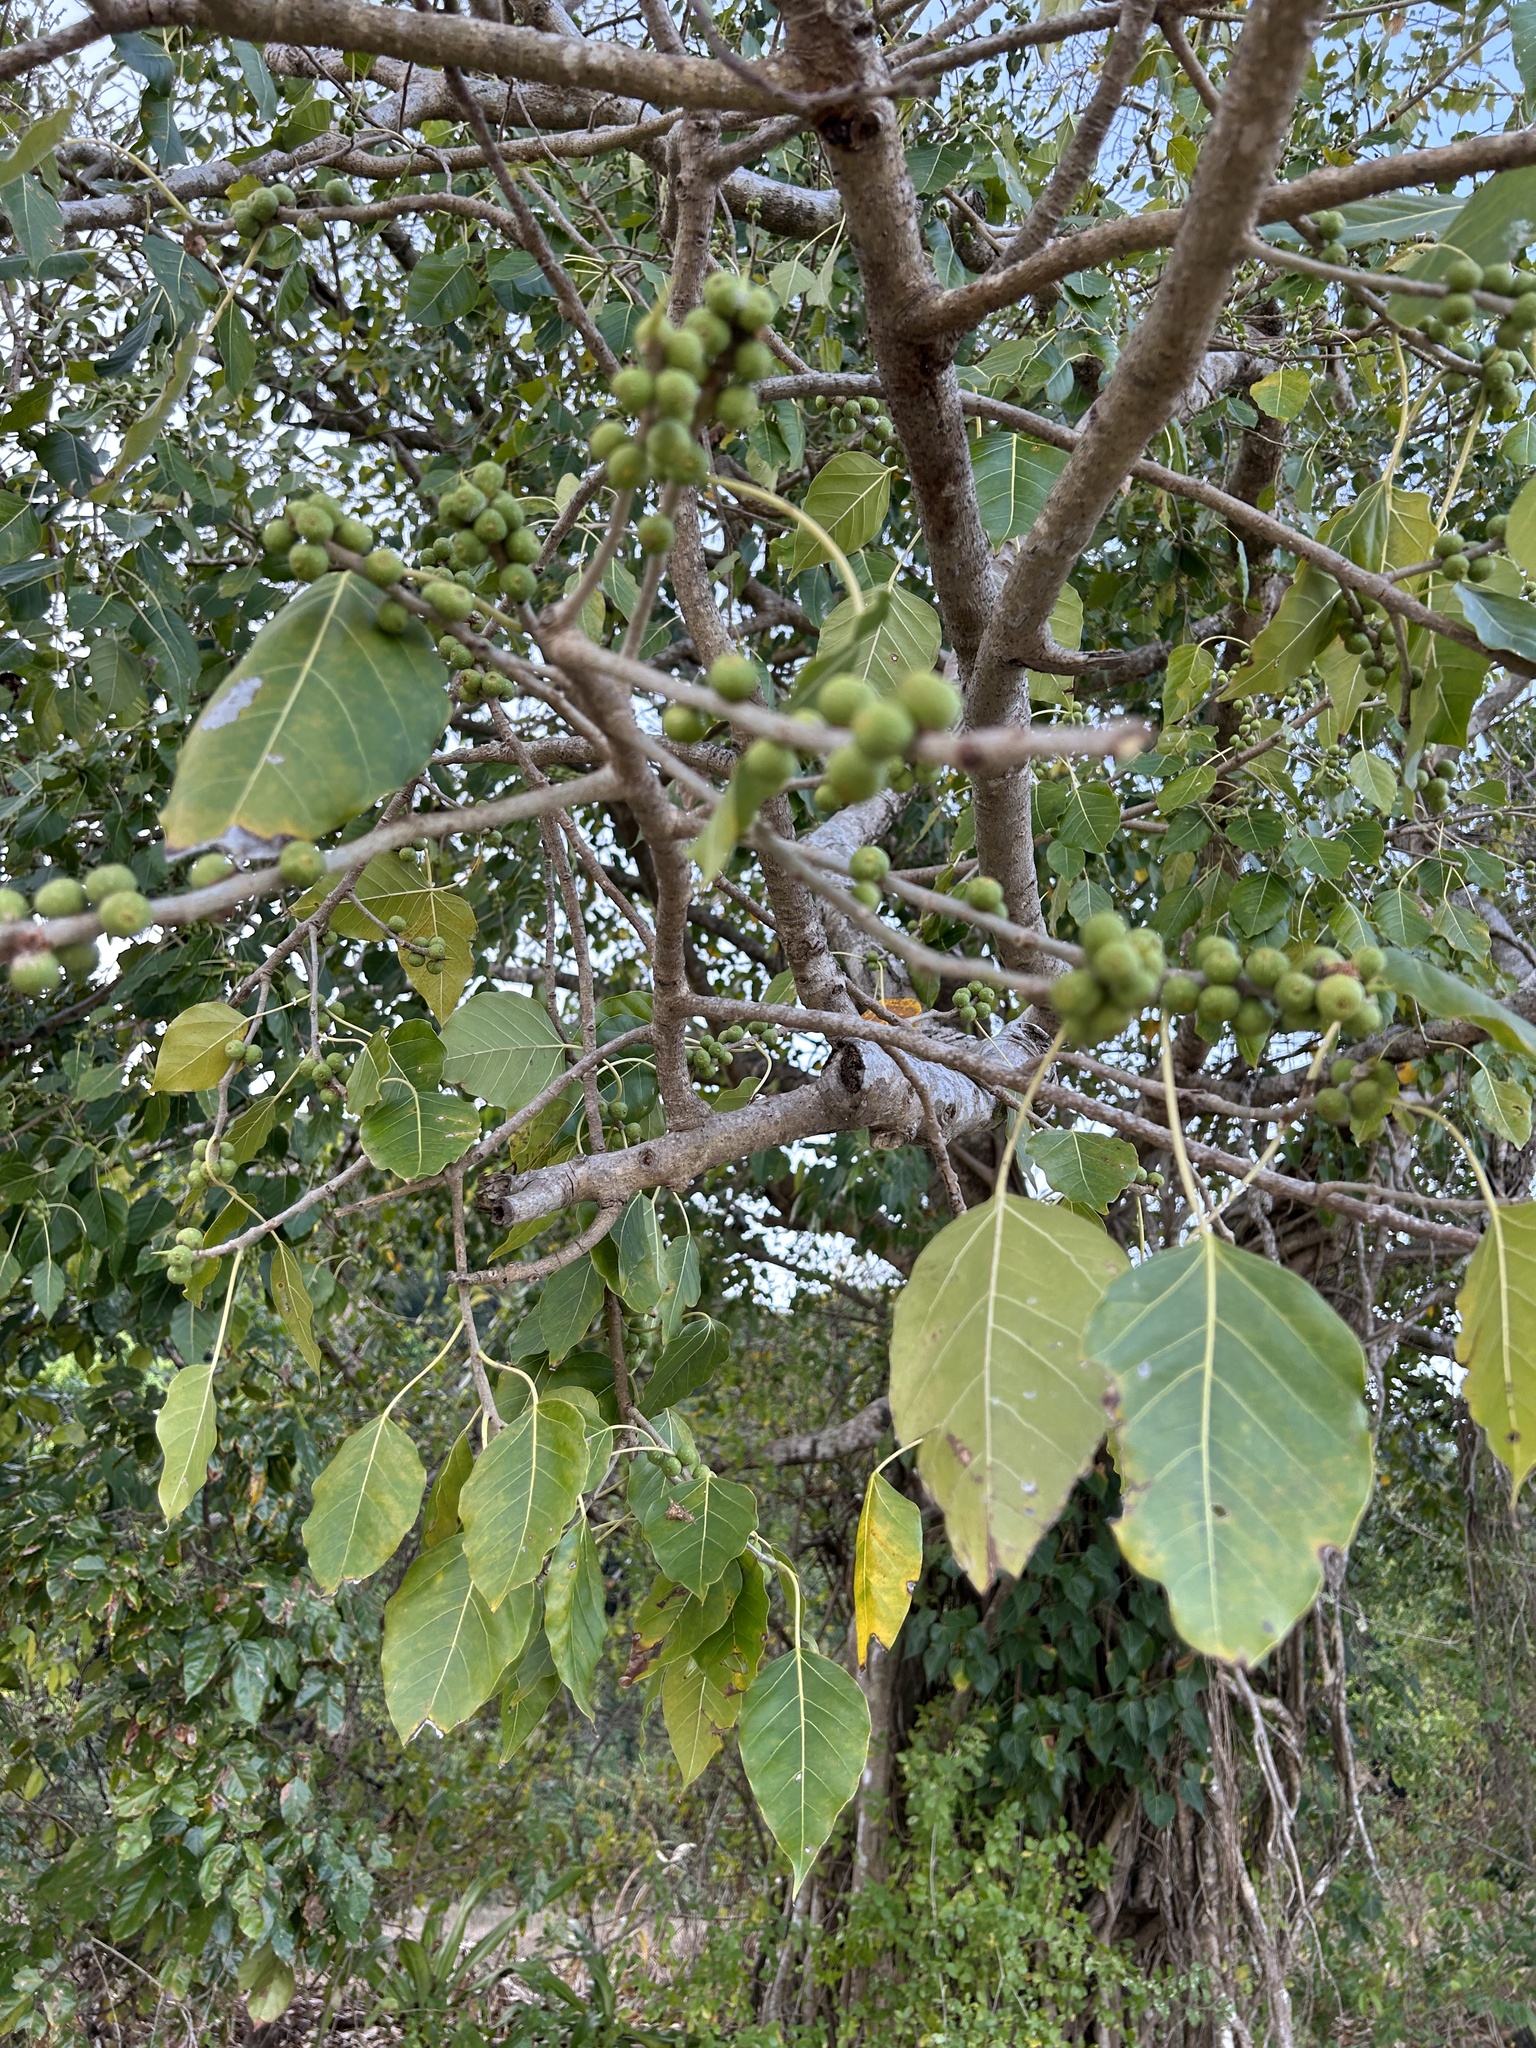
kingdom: Plantae
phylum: Tracheophyta
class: Magnoliopsida
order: Rosales
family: Moraceae
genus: Ficus
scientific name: Ficus rumphii
